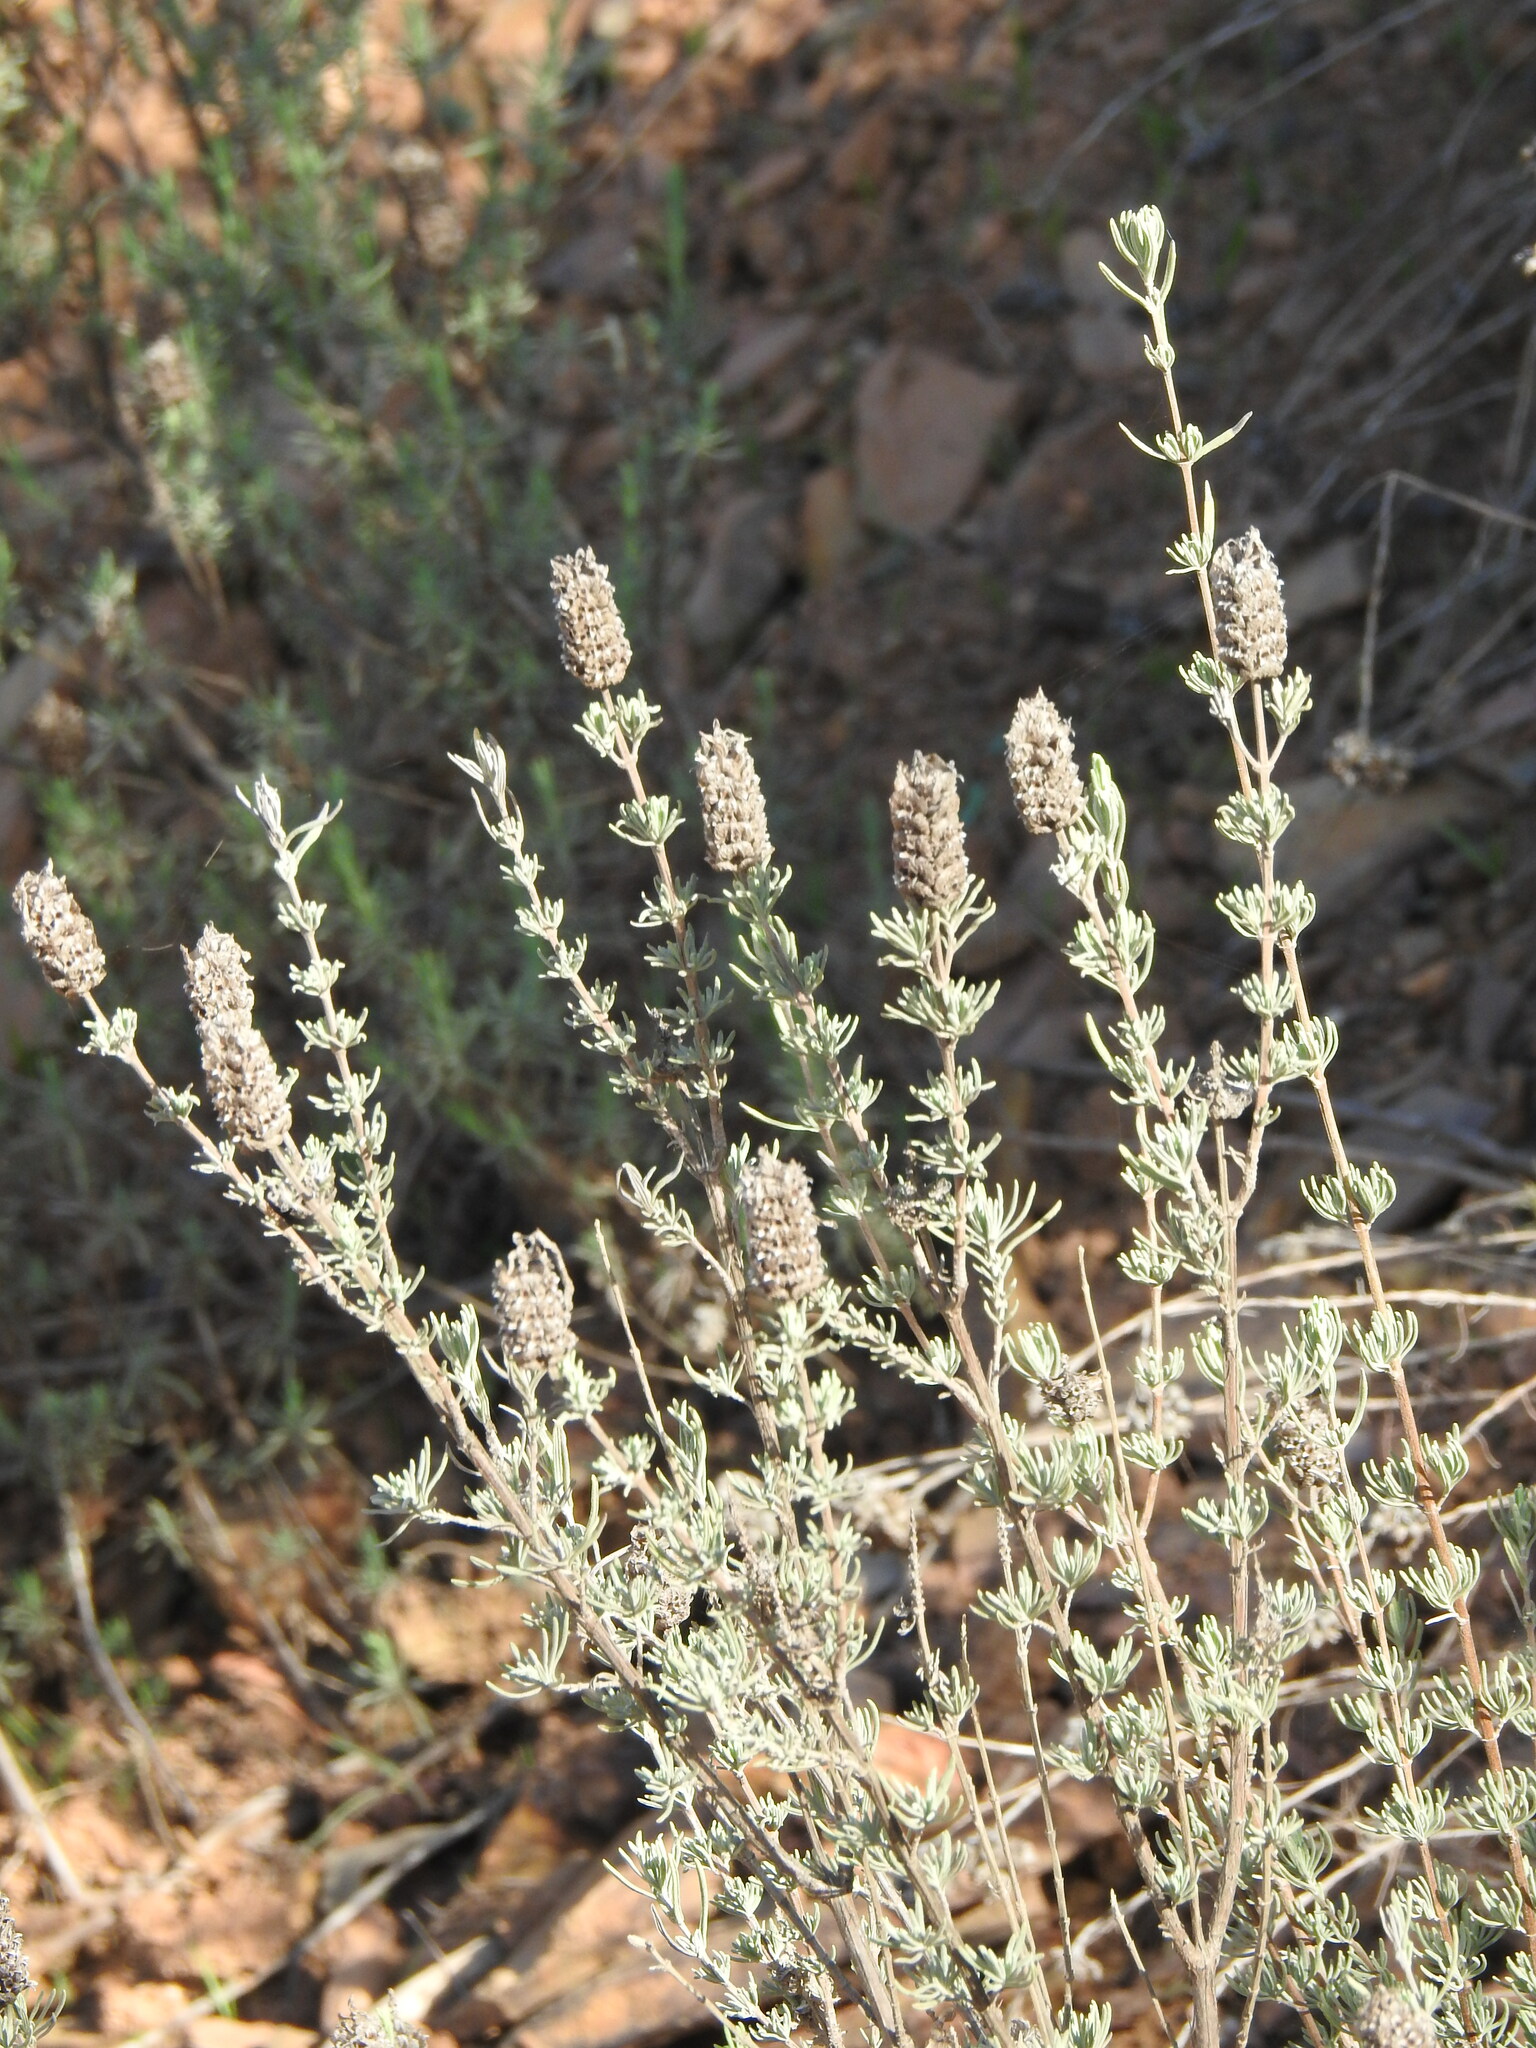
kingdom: Plantae
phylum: Tracheophyta
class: Magnoliopsida
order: Lamiales
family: Lamiaceae
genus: Lavandula
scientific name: Lavandula stoechas
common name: French lavender
